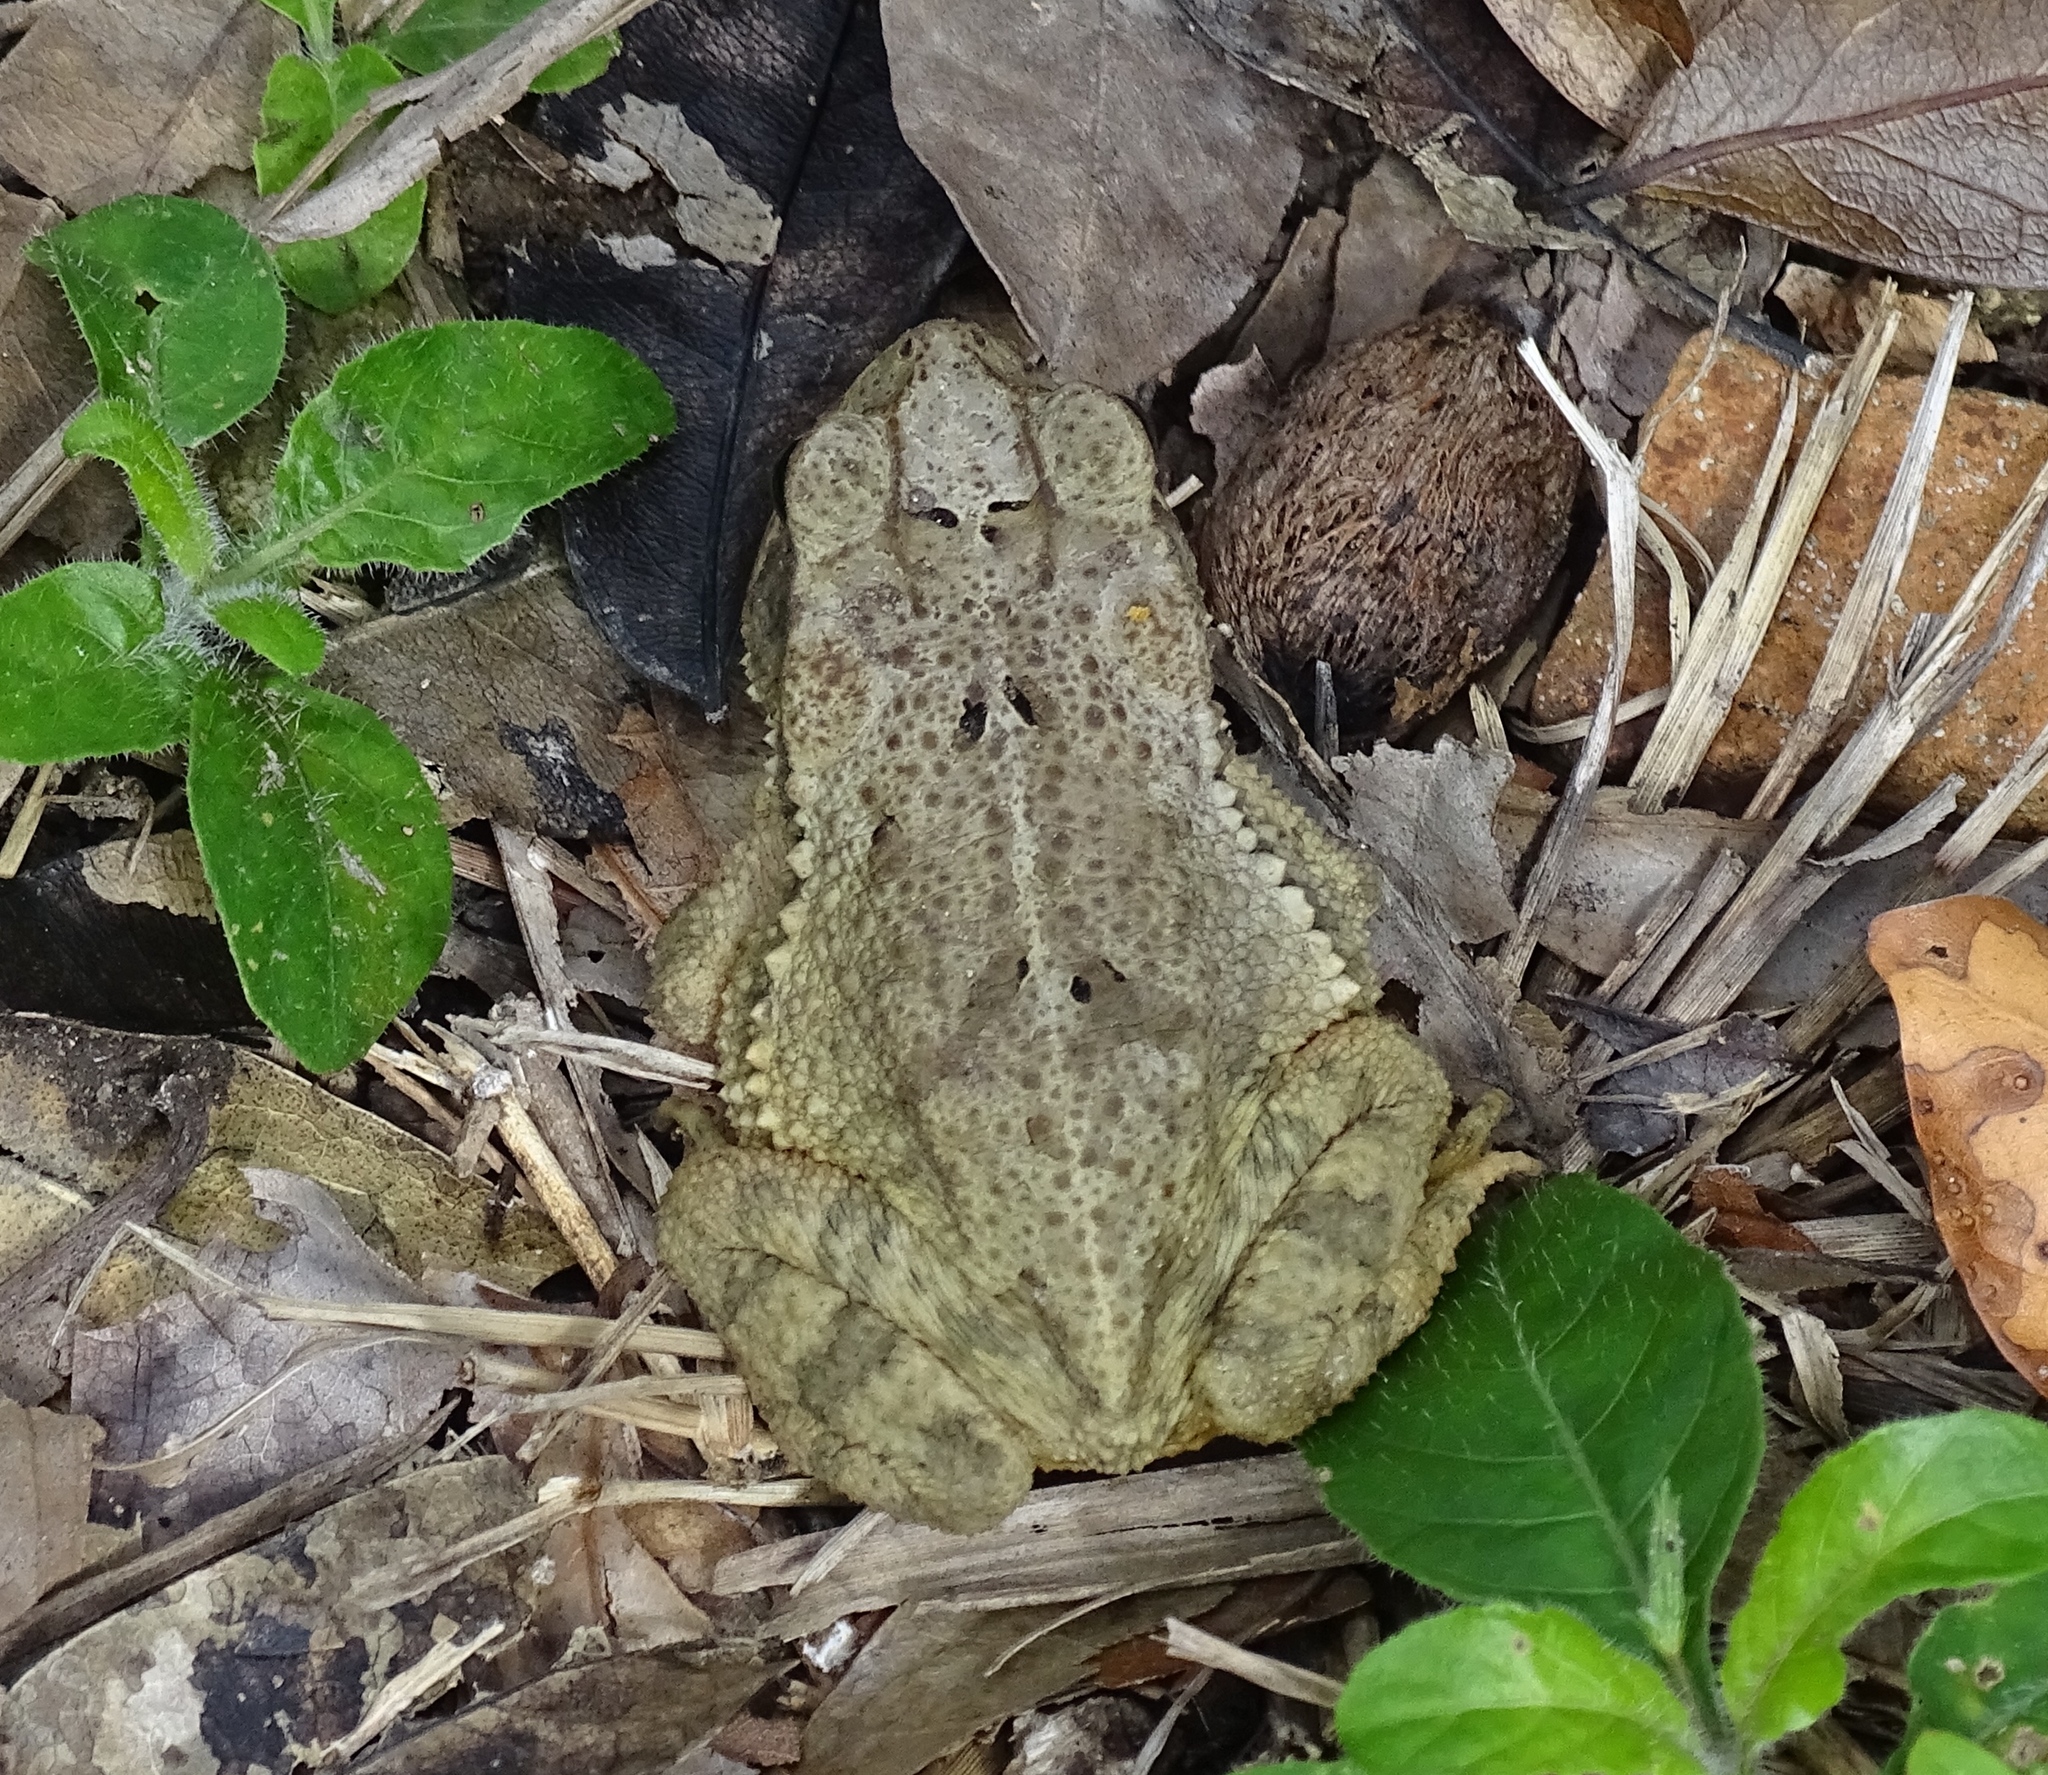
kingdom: Animalia
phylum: Chordata
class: Amphibia
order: Anura
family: Bufonidae
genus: Incilius
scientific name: Incilius valliceps
